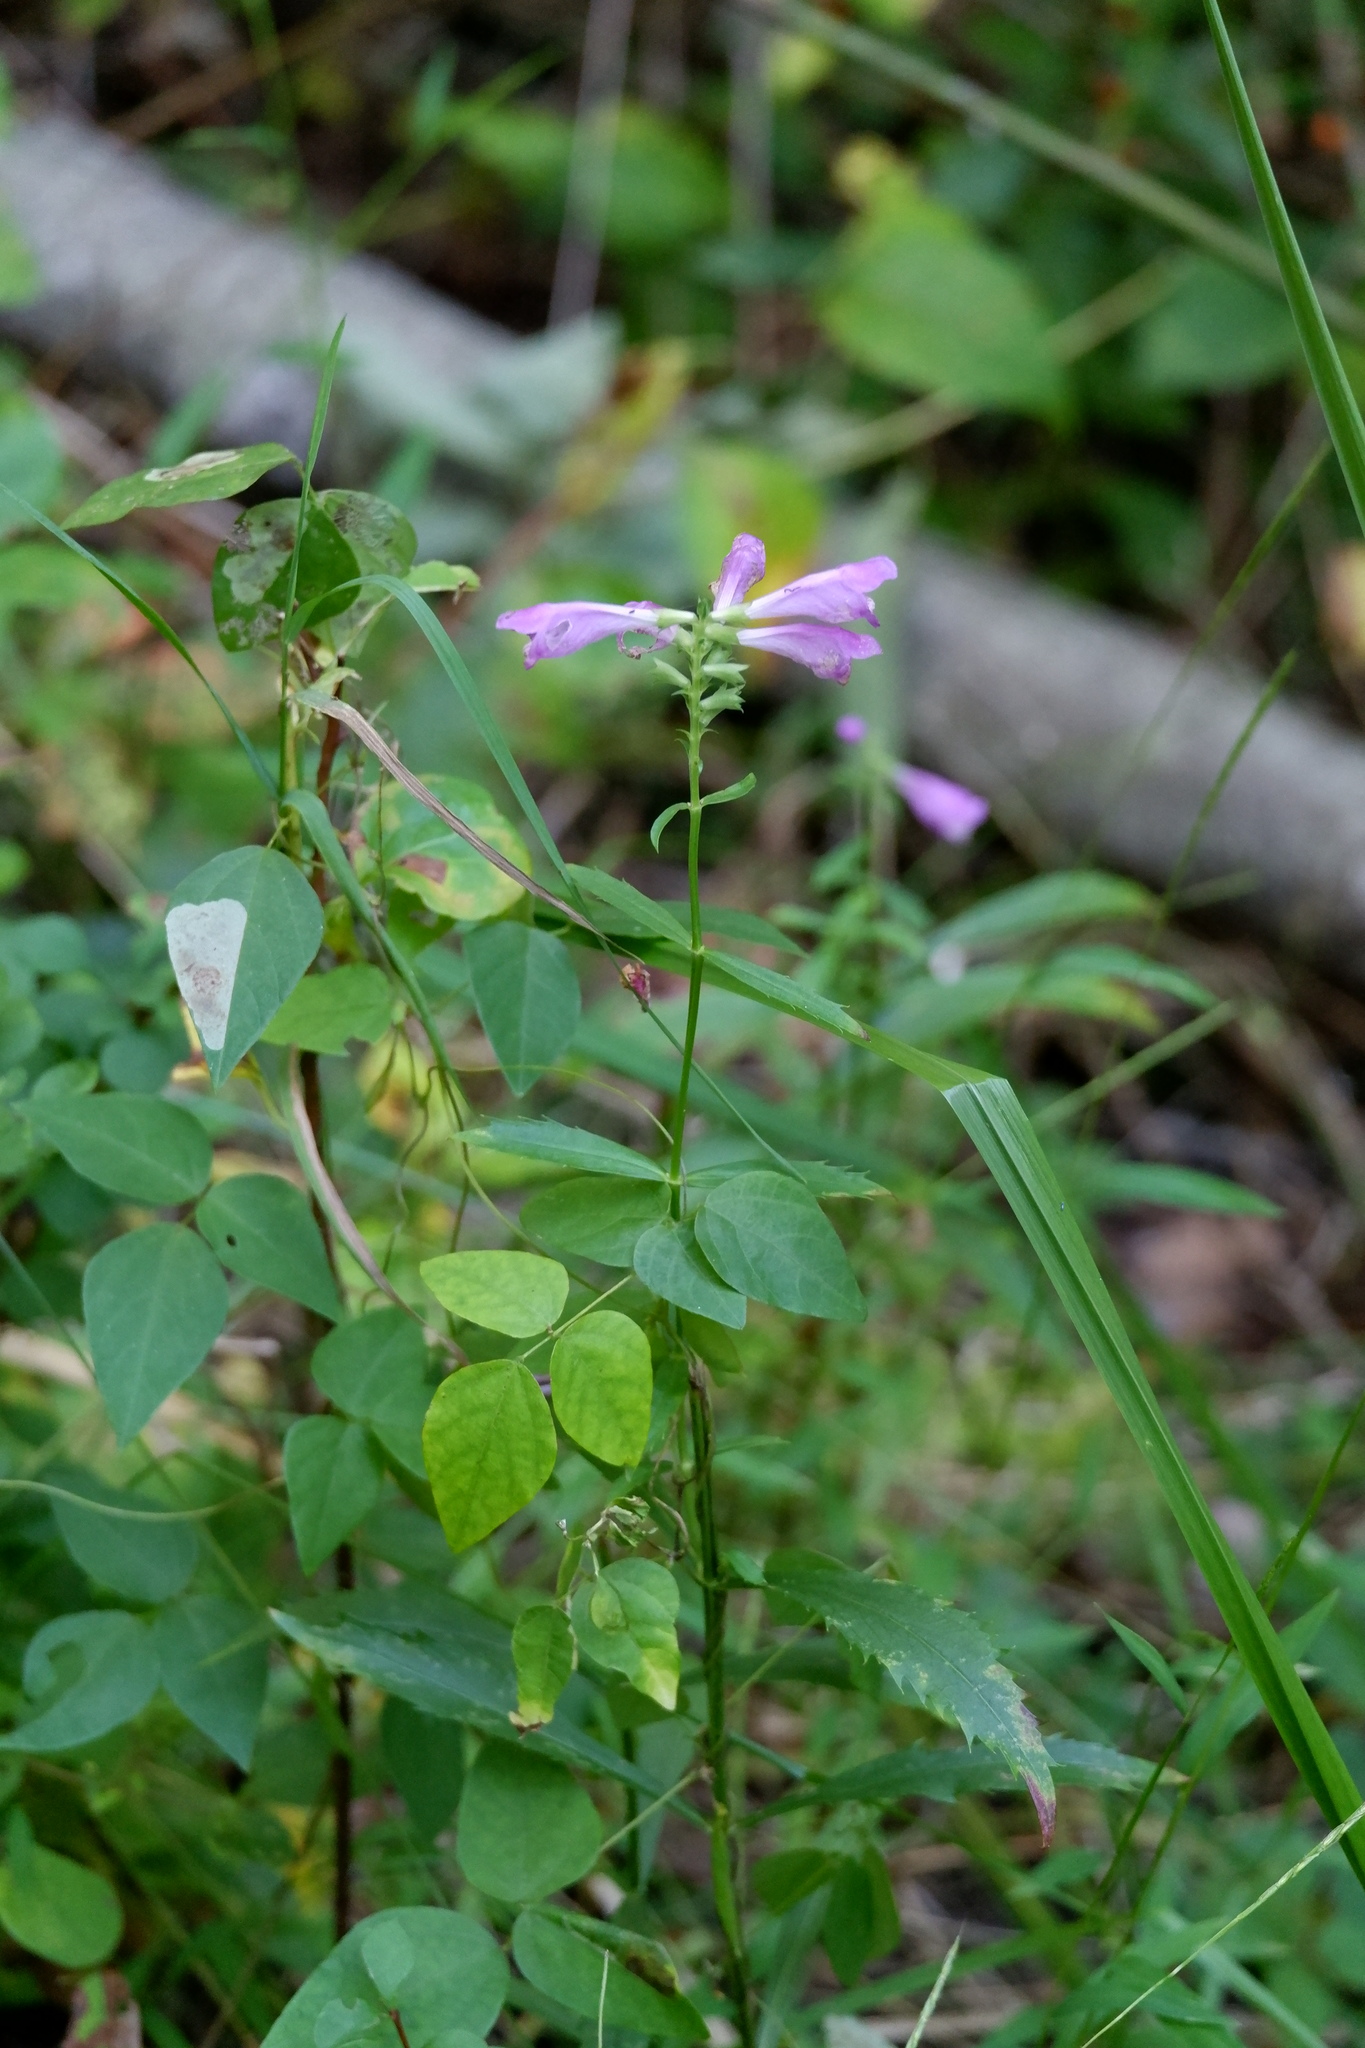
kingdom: Plantae
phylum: Tracheophyta
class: Magnoliopsida
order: Lamiales
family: Lamiaceae
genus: Physostegia
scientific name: Physostegia virginiana
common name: Obedient-plant
